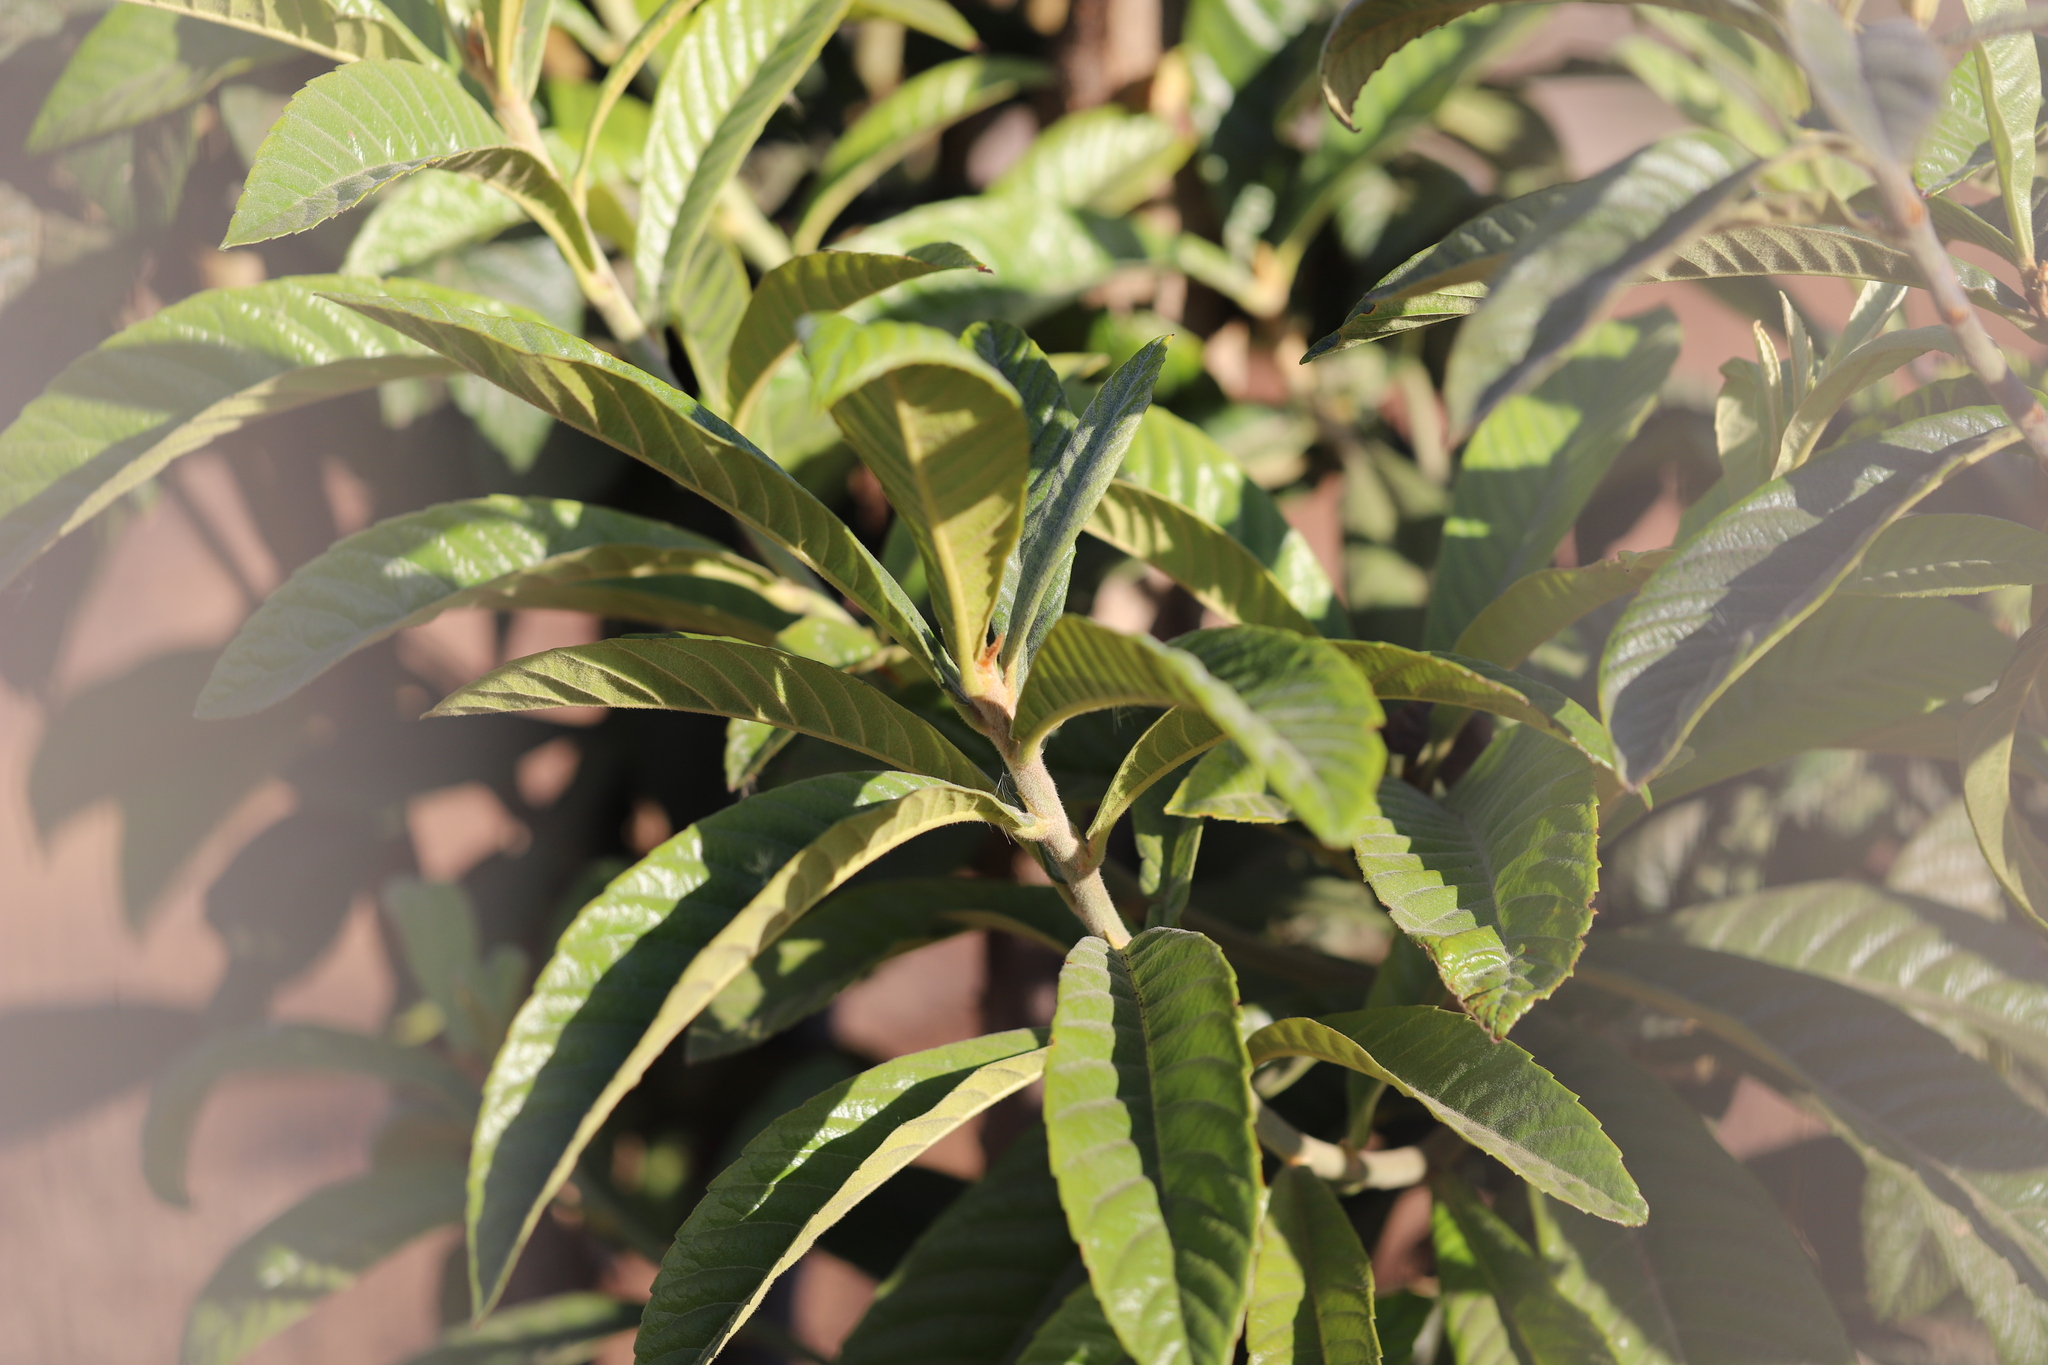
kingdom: Plantae
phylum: Tracheophyta
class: Magnoliopsida
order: Rosales
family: Rosaceae
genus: Rhaphiolepis
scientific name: Rhaphiolepis bibas
